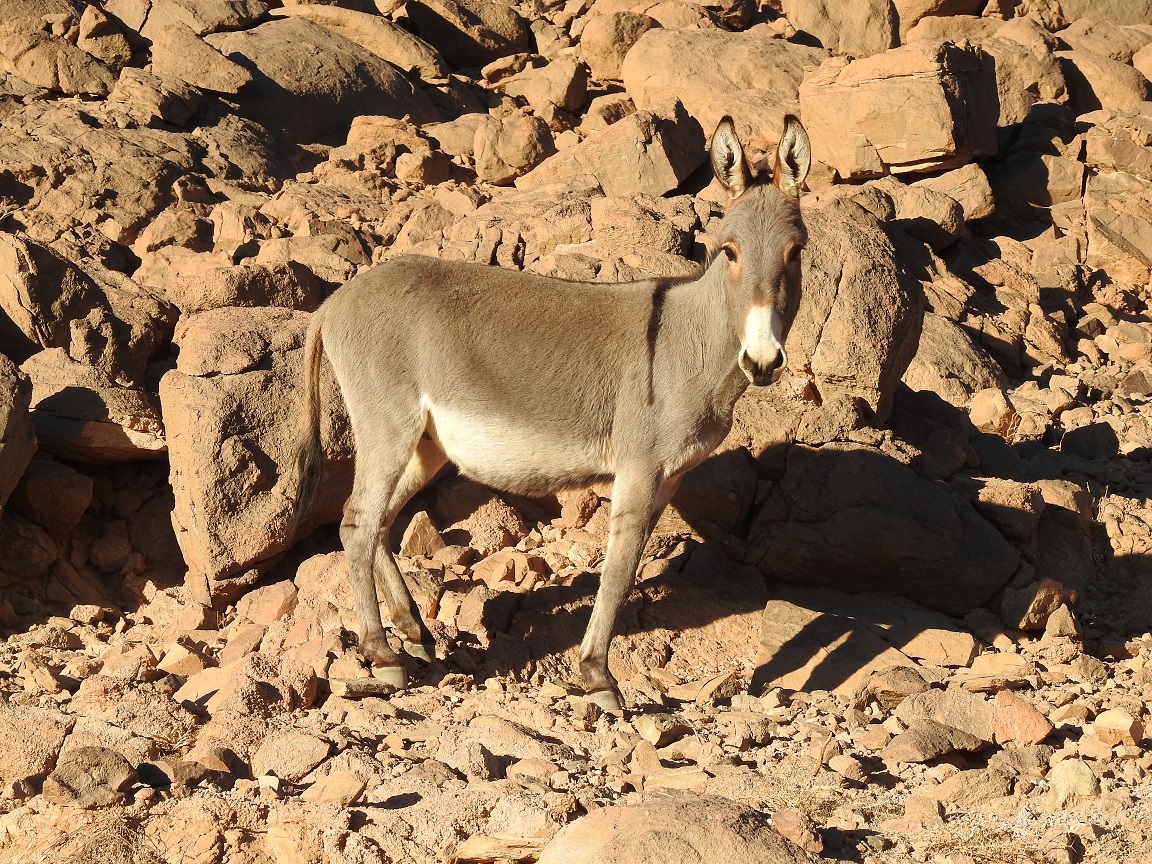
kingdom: Animalia
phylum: Chordata
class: Mammalia
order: Perissodactyla
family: Equidae
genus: Equus
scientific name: Equus asinus
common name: Ass
